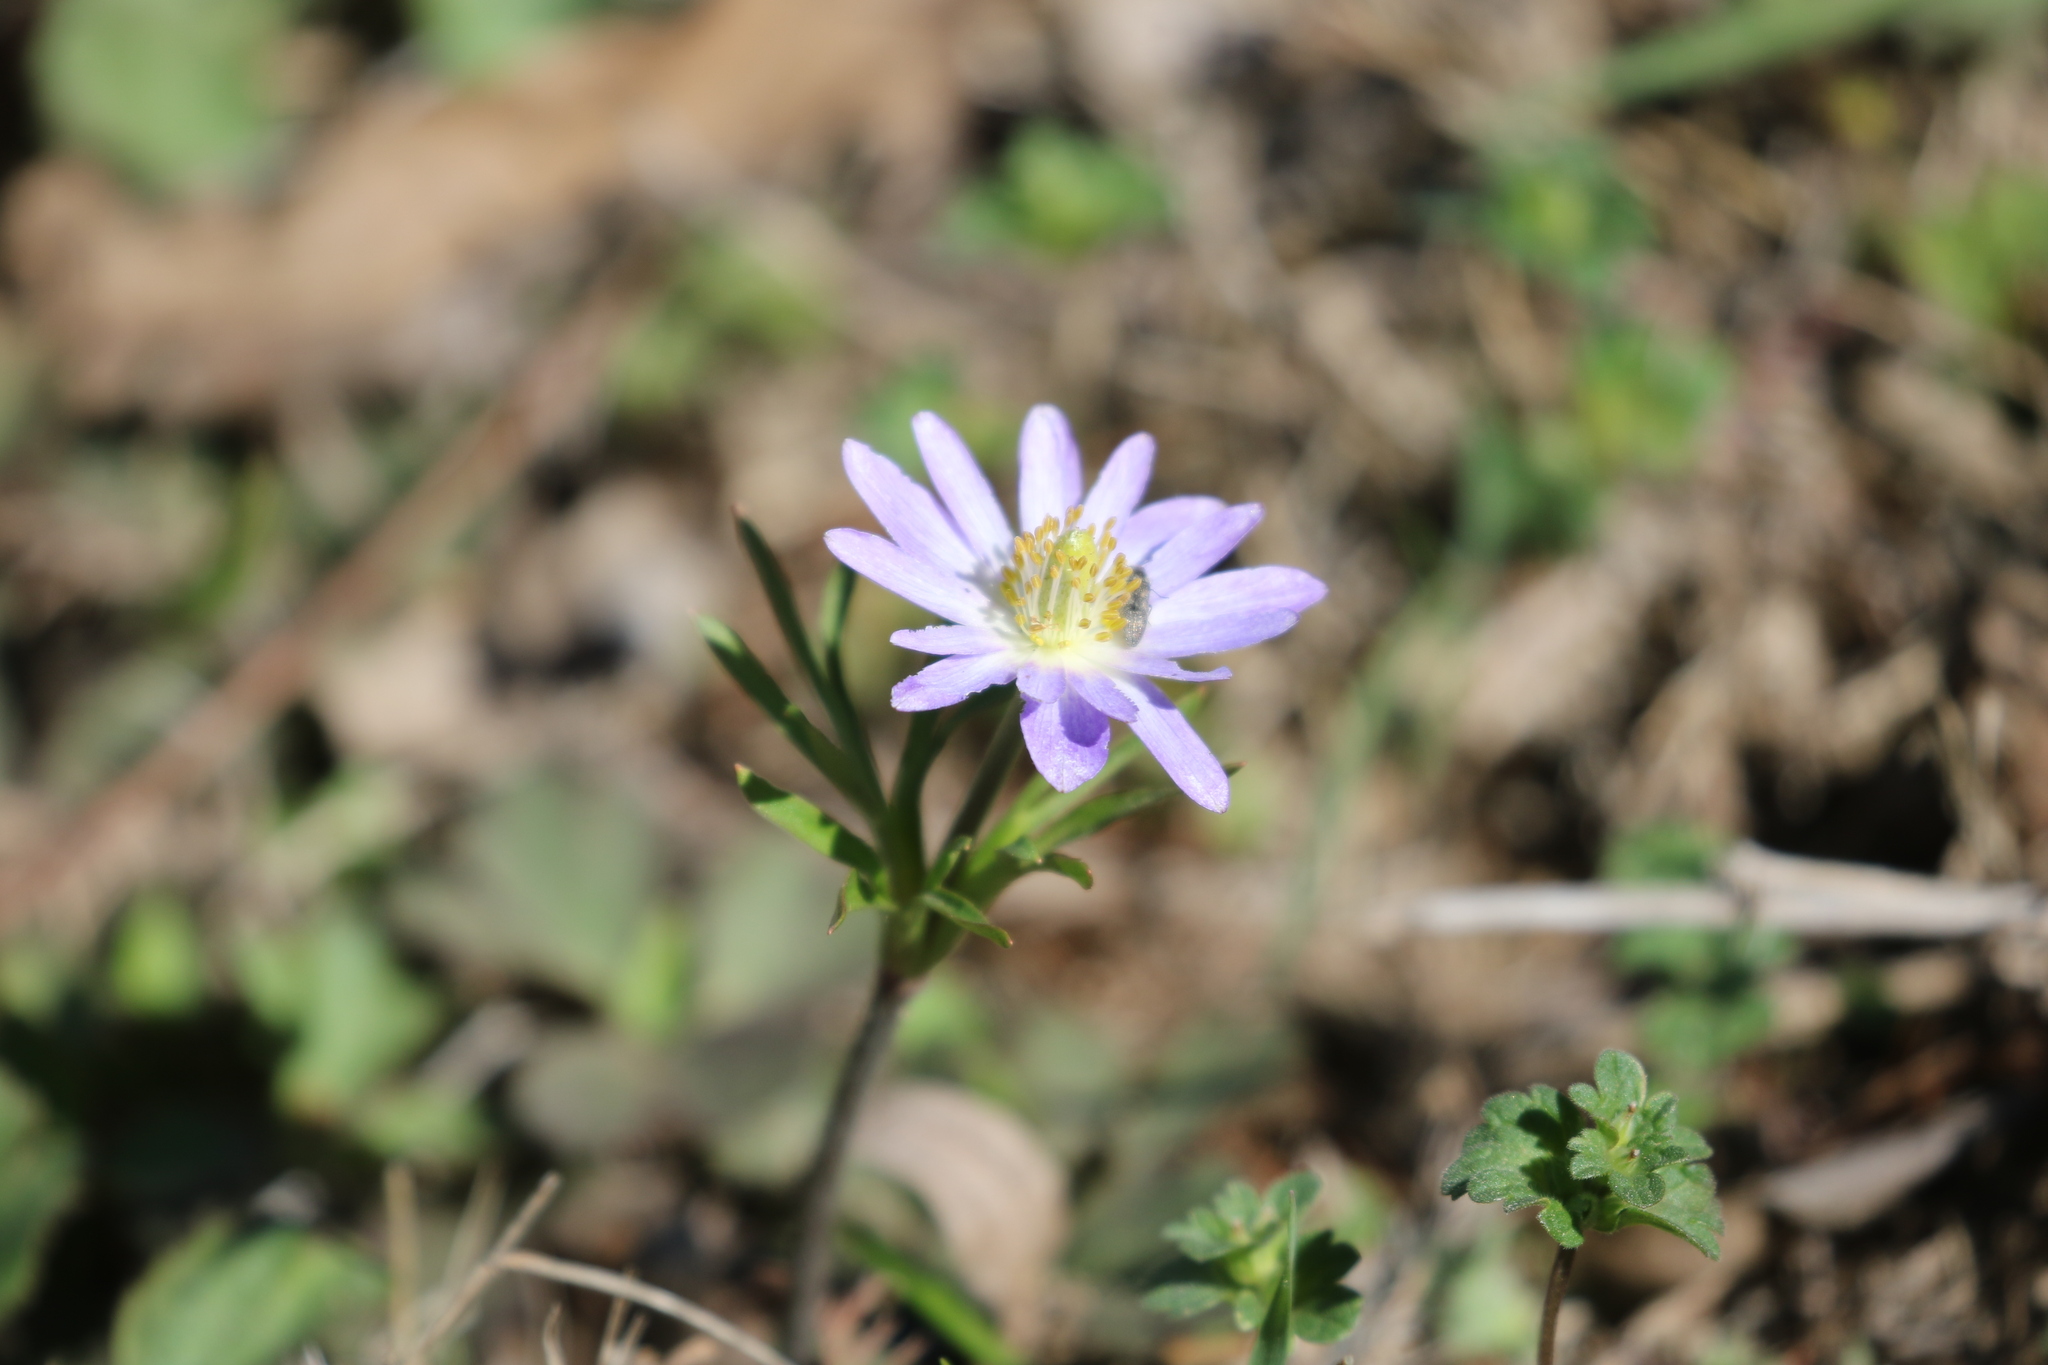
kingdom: Plantae
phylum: Tracheophyta
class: Magnoliopsida
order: Ranunculales
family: Ranunculaceae
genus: Anemone
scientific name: Anemone berlandieri
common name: Ten-petal anemone
